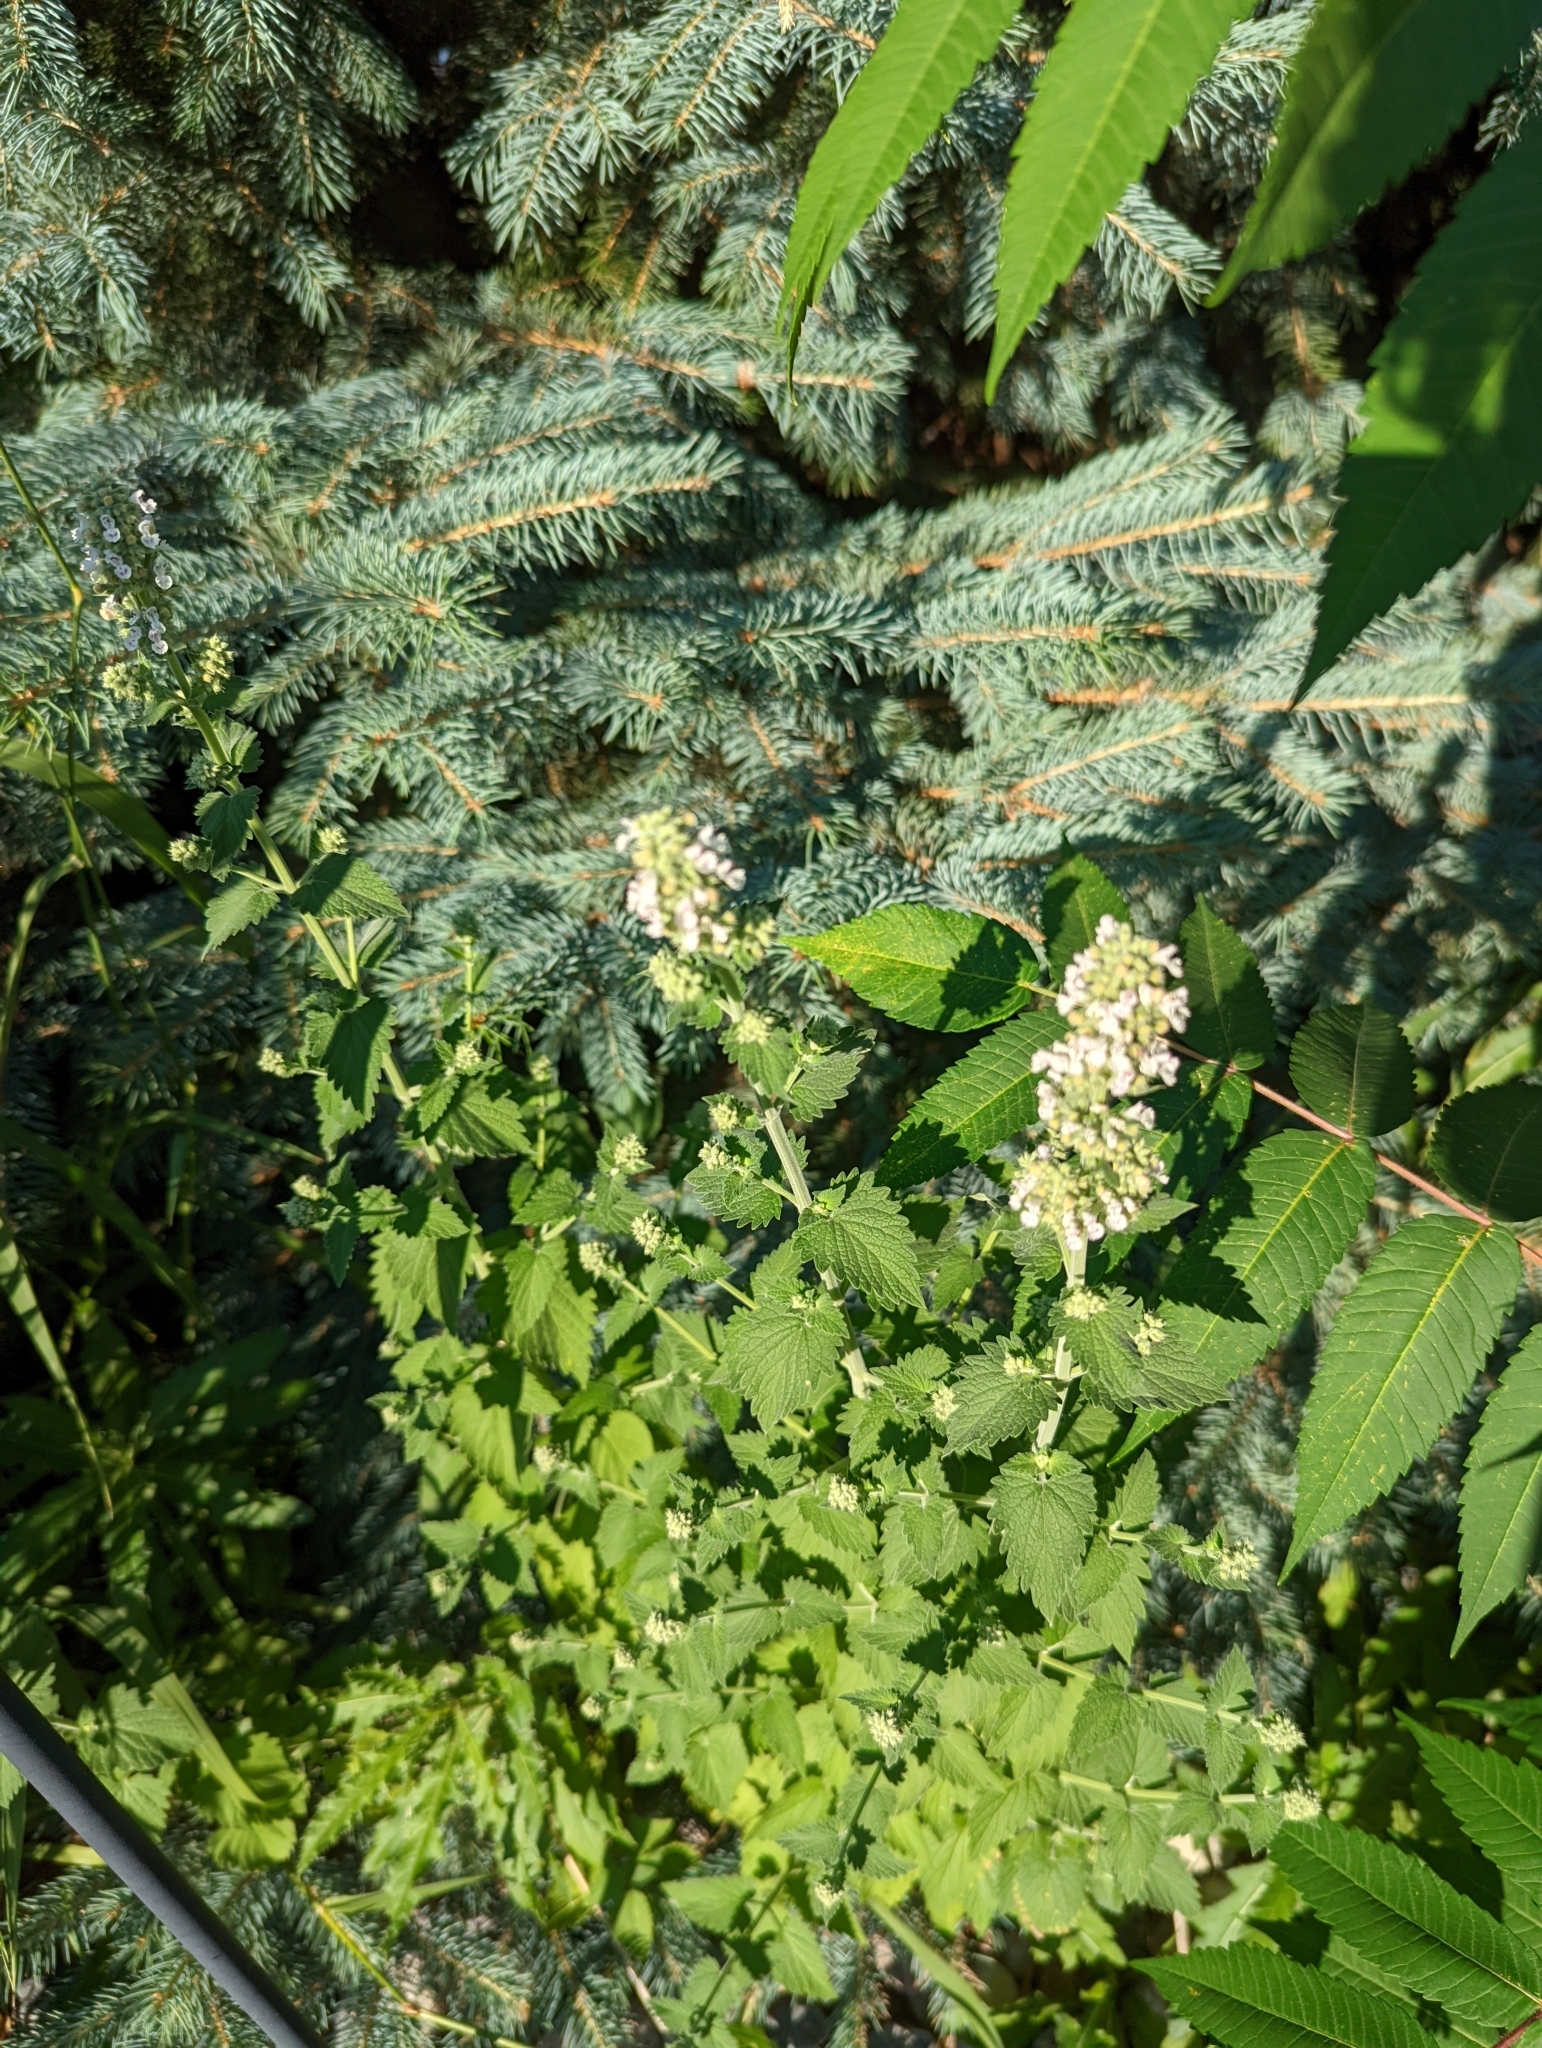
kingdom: Plantae
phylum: Tracheophyta
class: Magnoliopsida
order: Lamiales
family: Lamiaceae
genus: Nepeta
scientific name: Nepeta cataria
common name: Catnip
